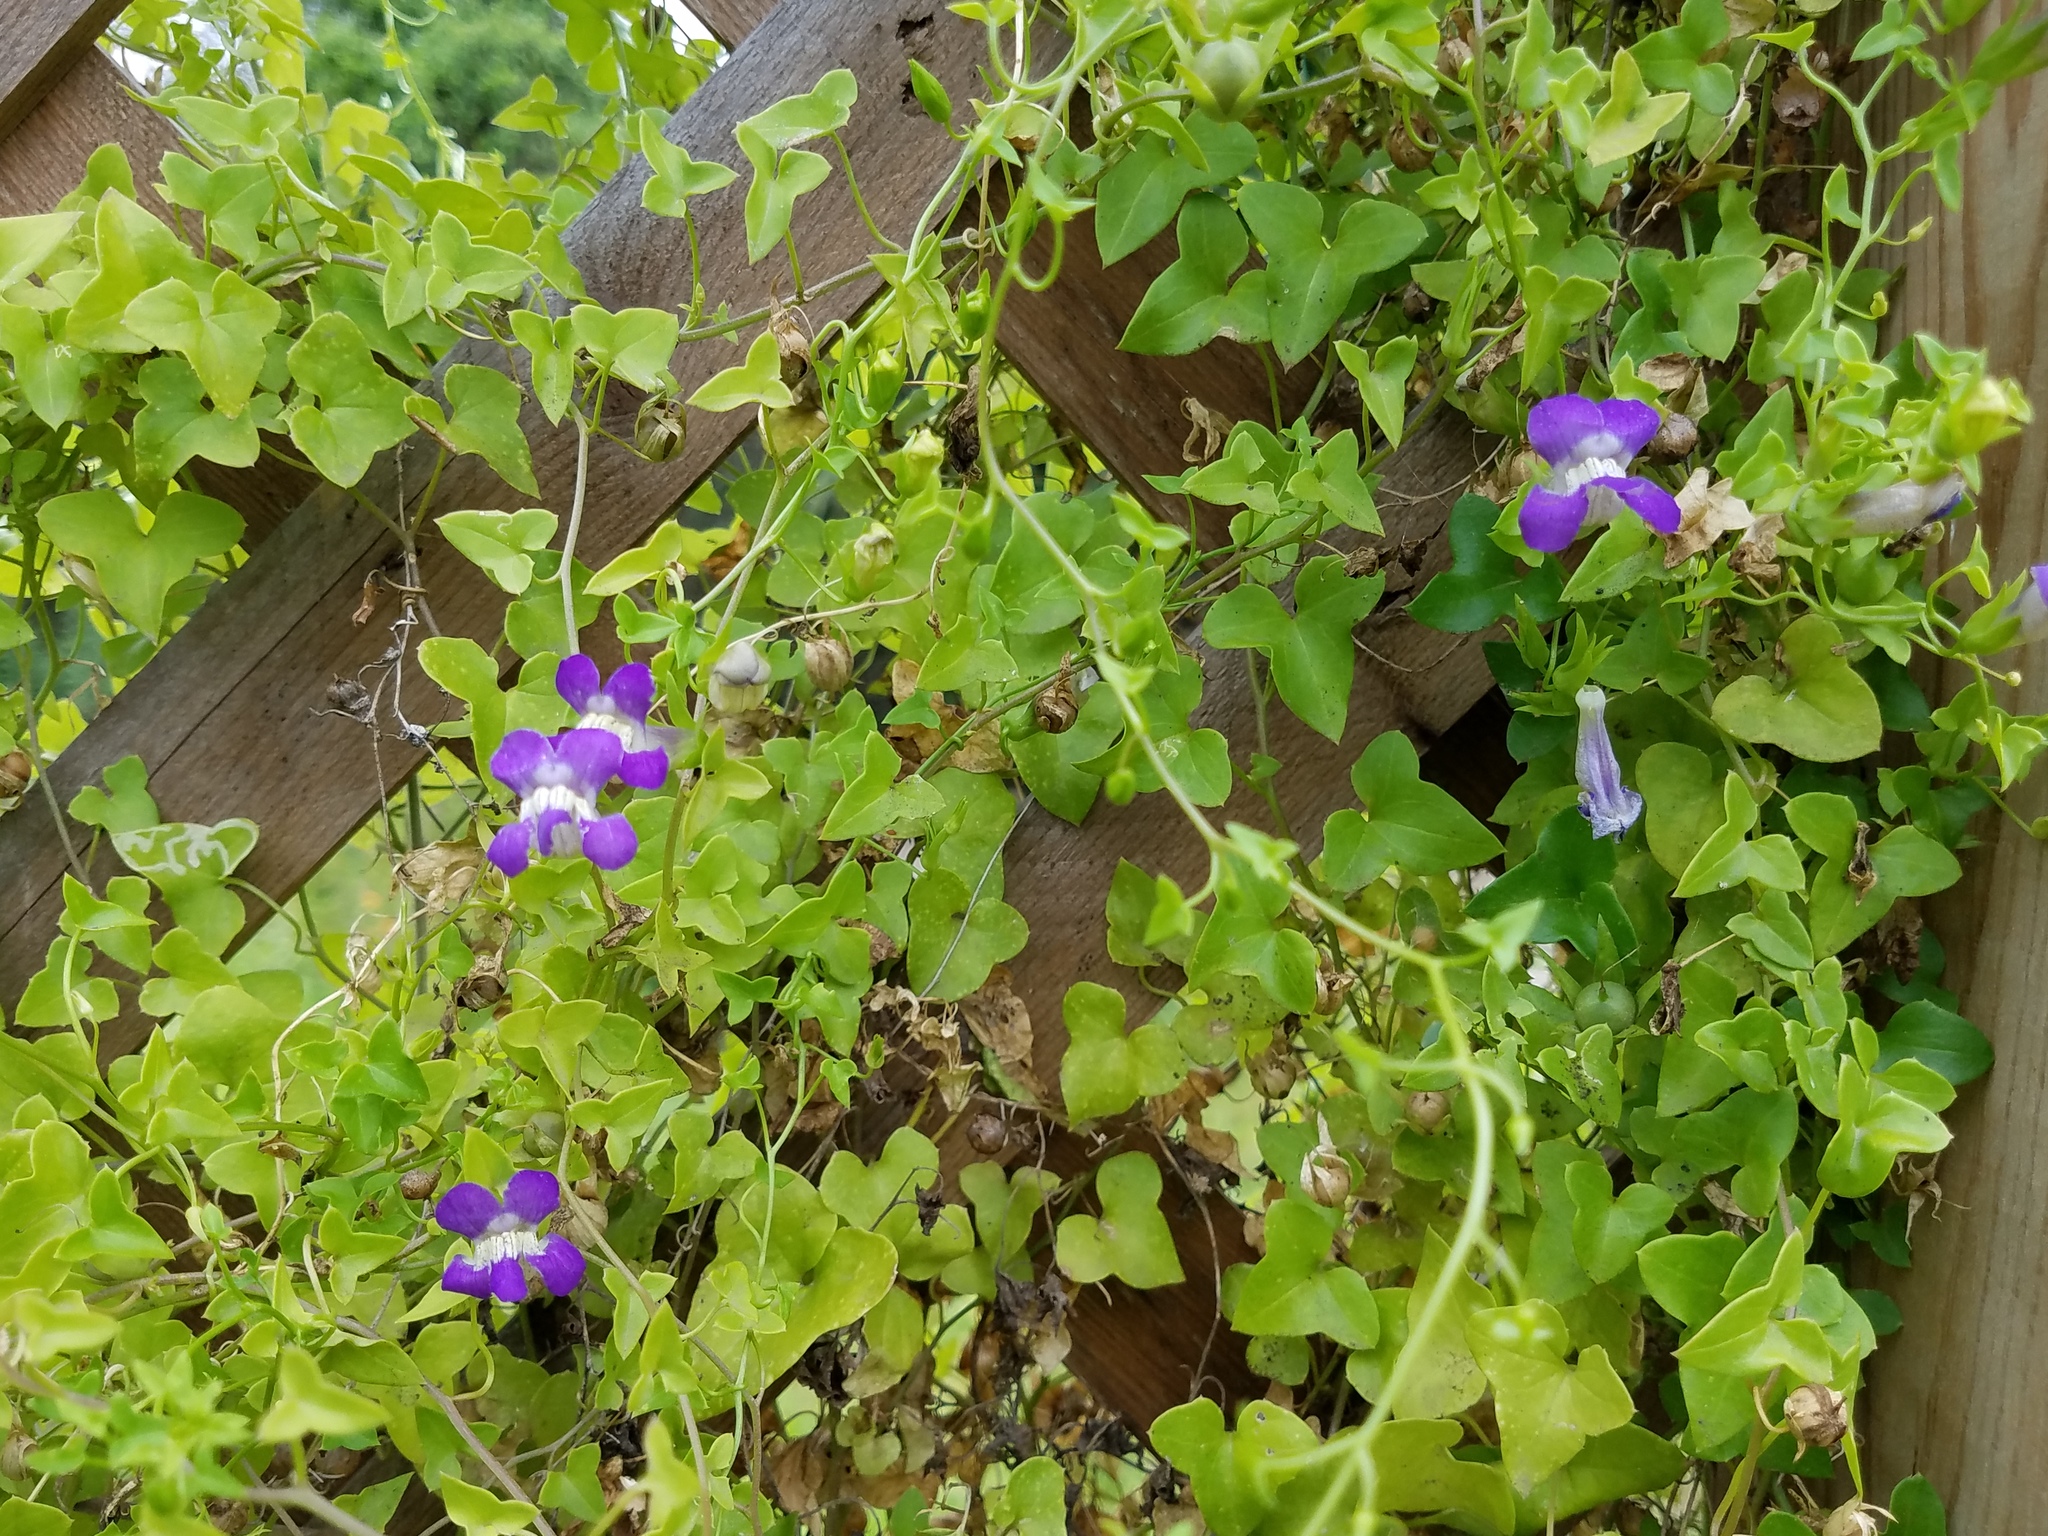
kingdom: Plantae
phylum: Tracheophyta
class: Magnoliopsida
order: Lamiales
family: Plantaginaceae
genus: Maurandella
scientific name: Maurandella antirrhiniflora
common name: Violet twining-snapdragon
